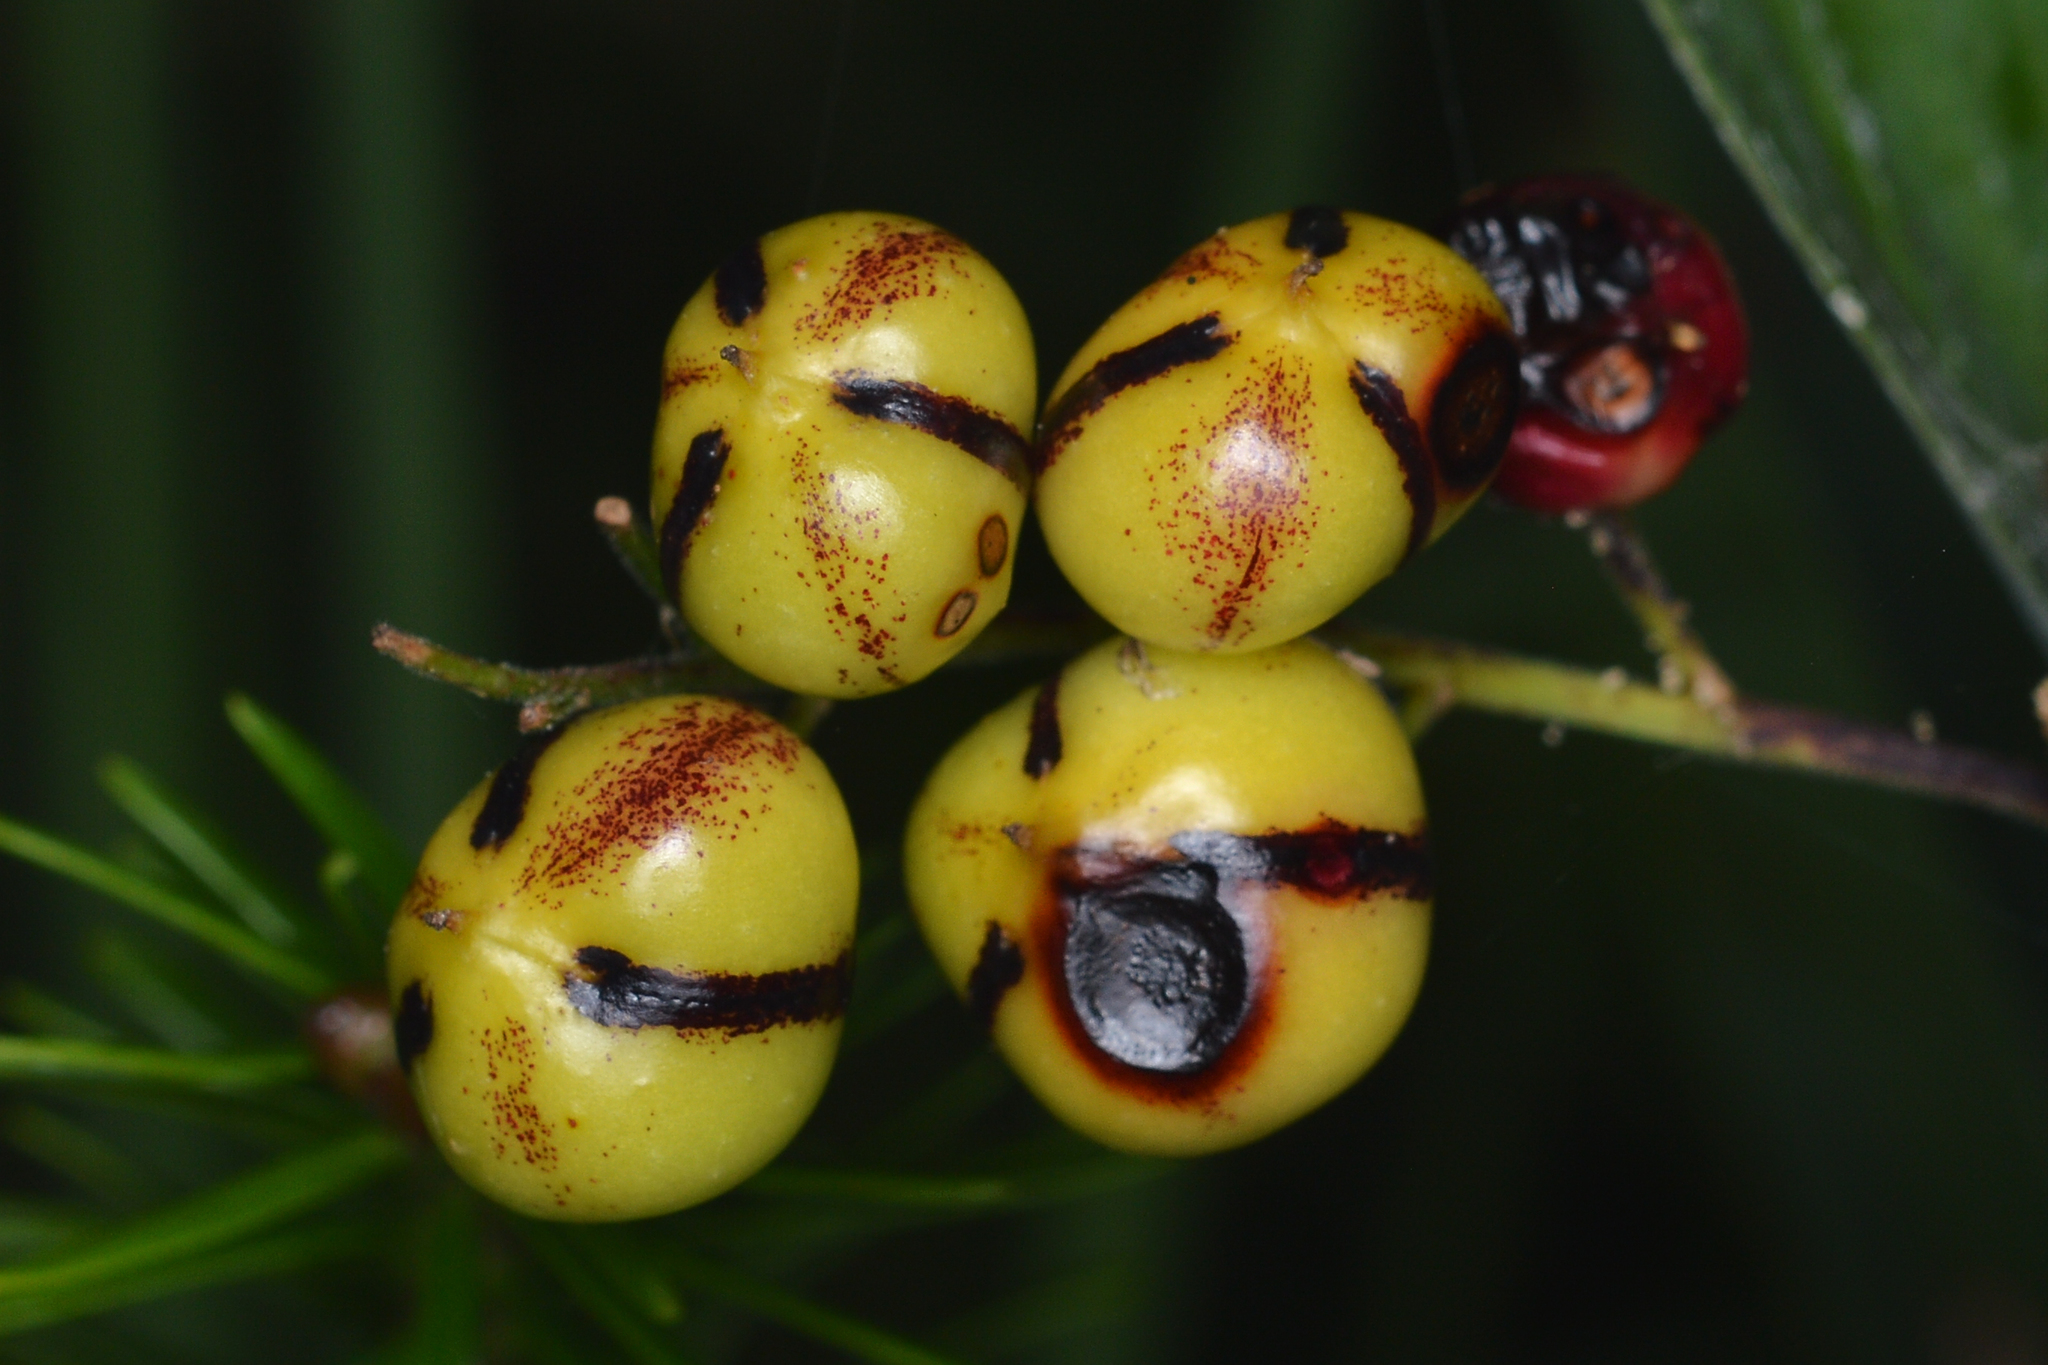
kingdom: Plantae
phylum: Tracheophyta
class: Liliopsida
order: Asparagales
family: Asparagaceae
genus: Maianthemum
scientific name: Maianthemum stellatum
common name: Little false solomon's seal
